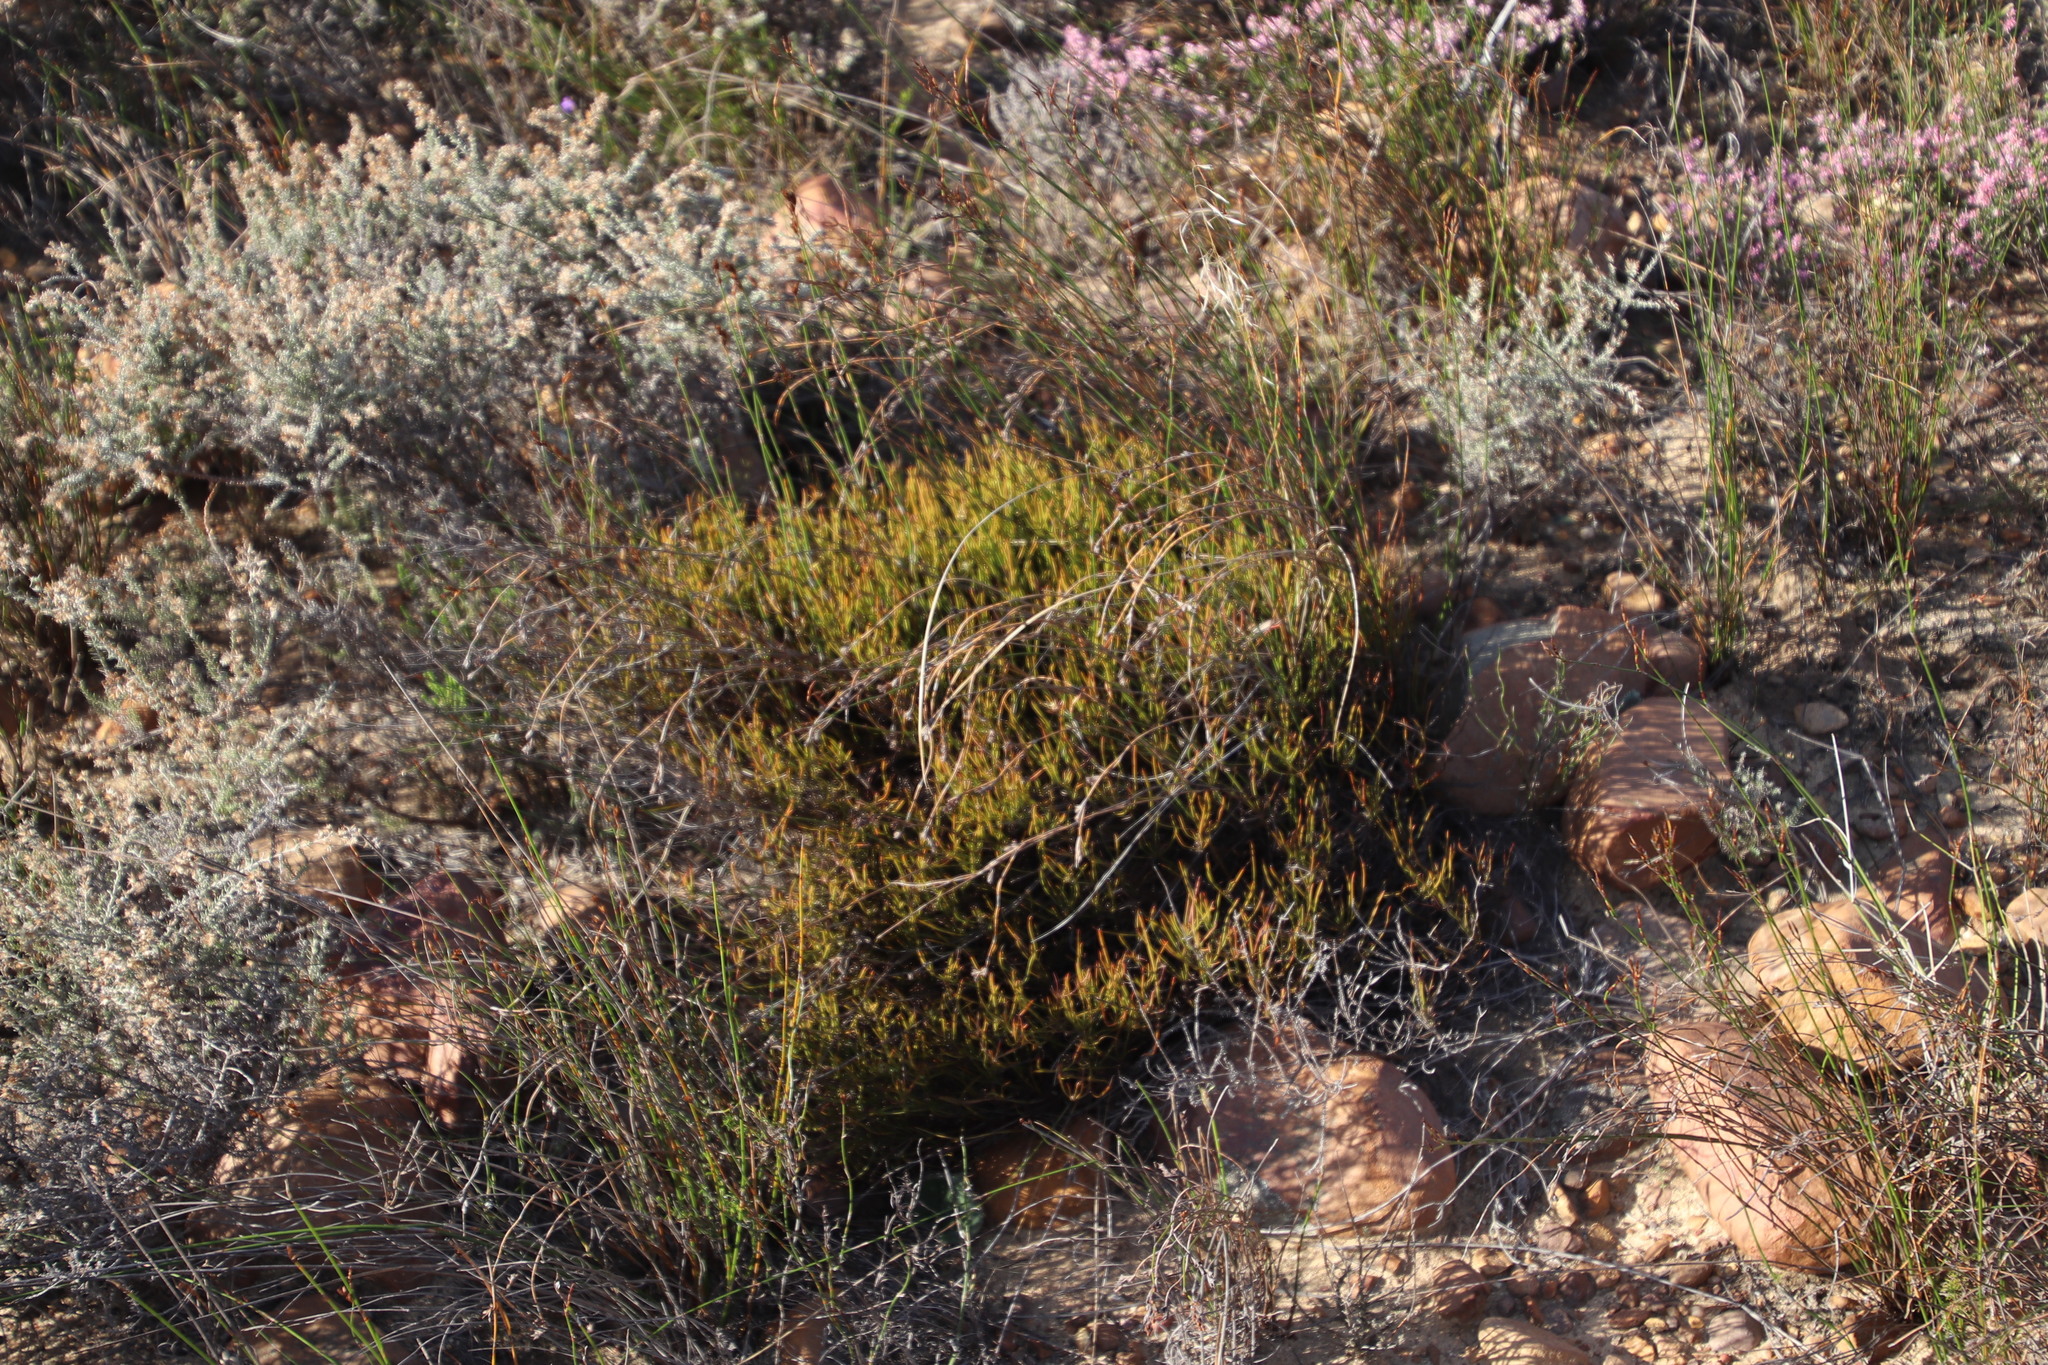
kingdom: Plantae
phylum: Tracheophyta
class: Magnoliopsida
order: Apiales
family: Apiaceae
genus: Centella
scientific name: Centella fusca
